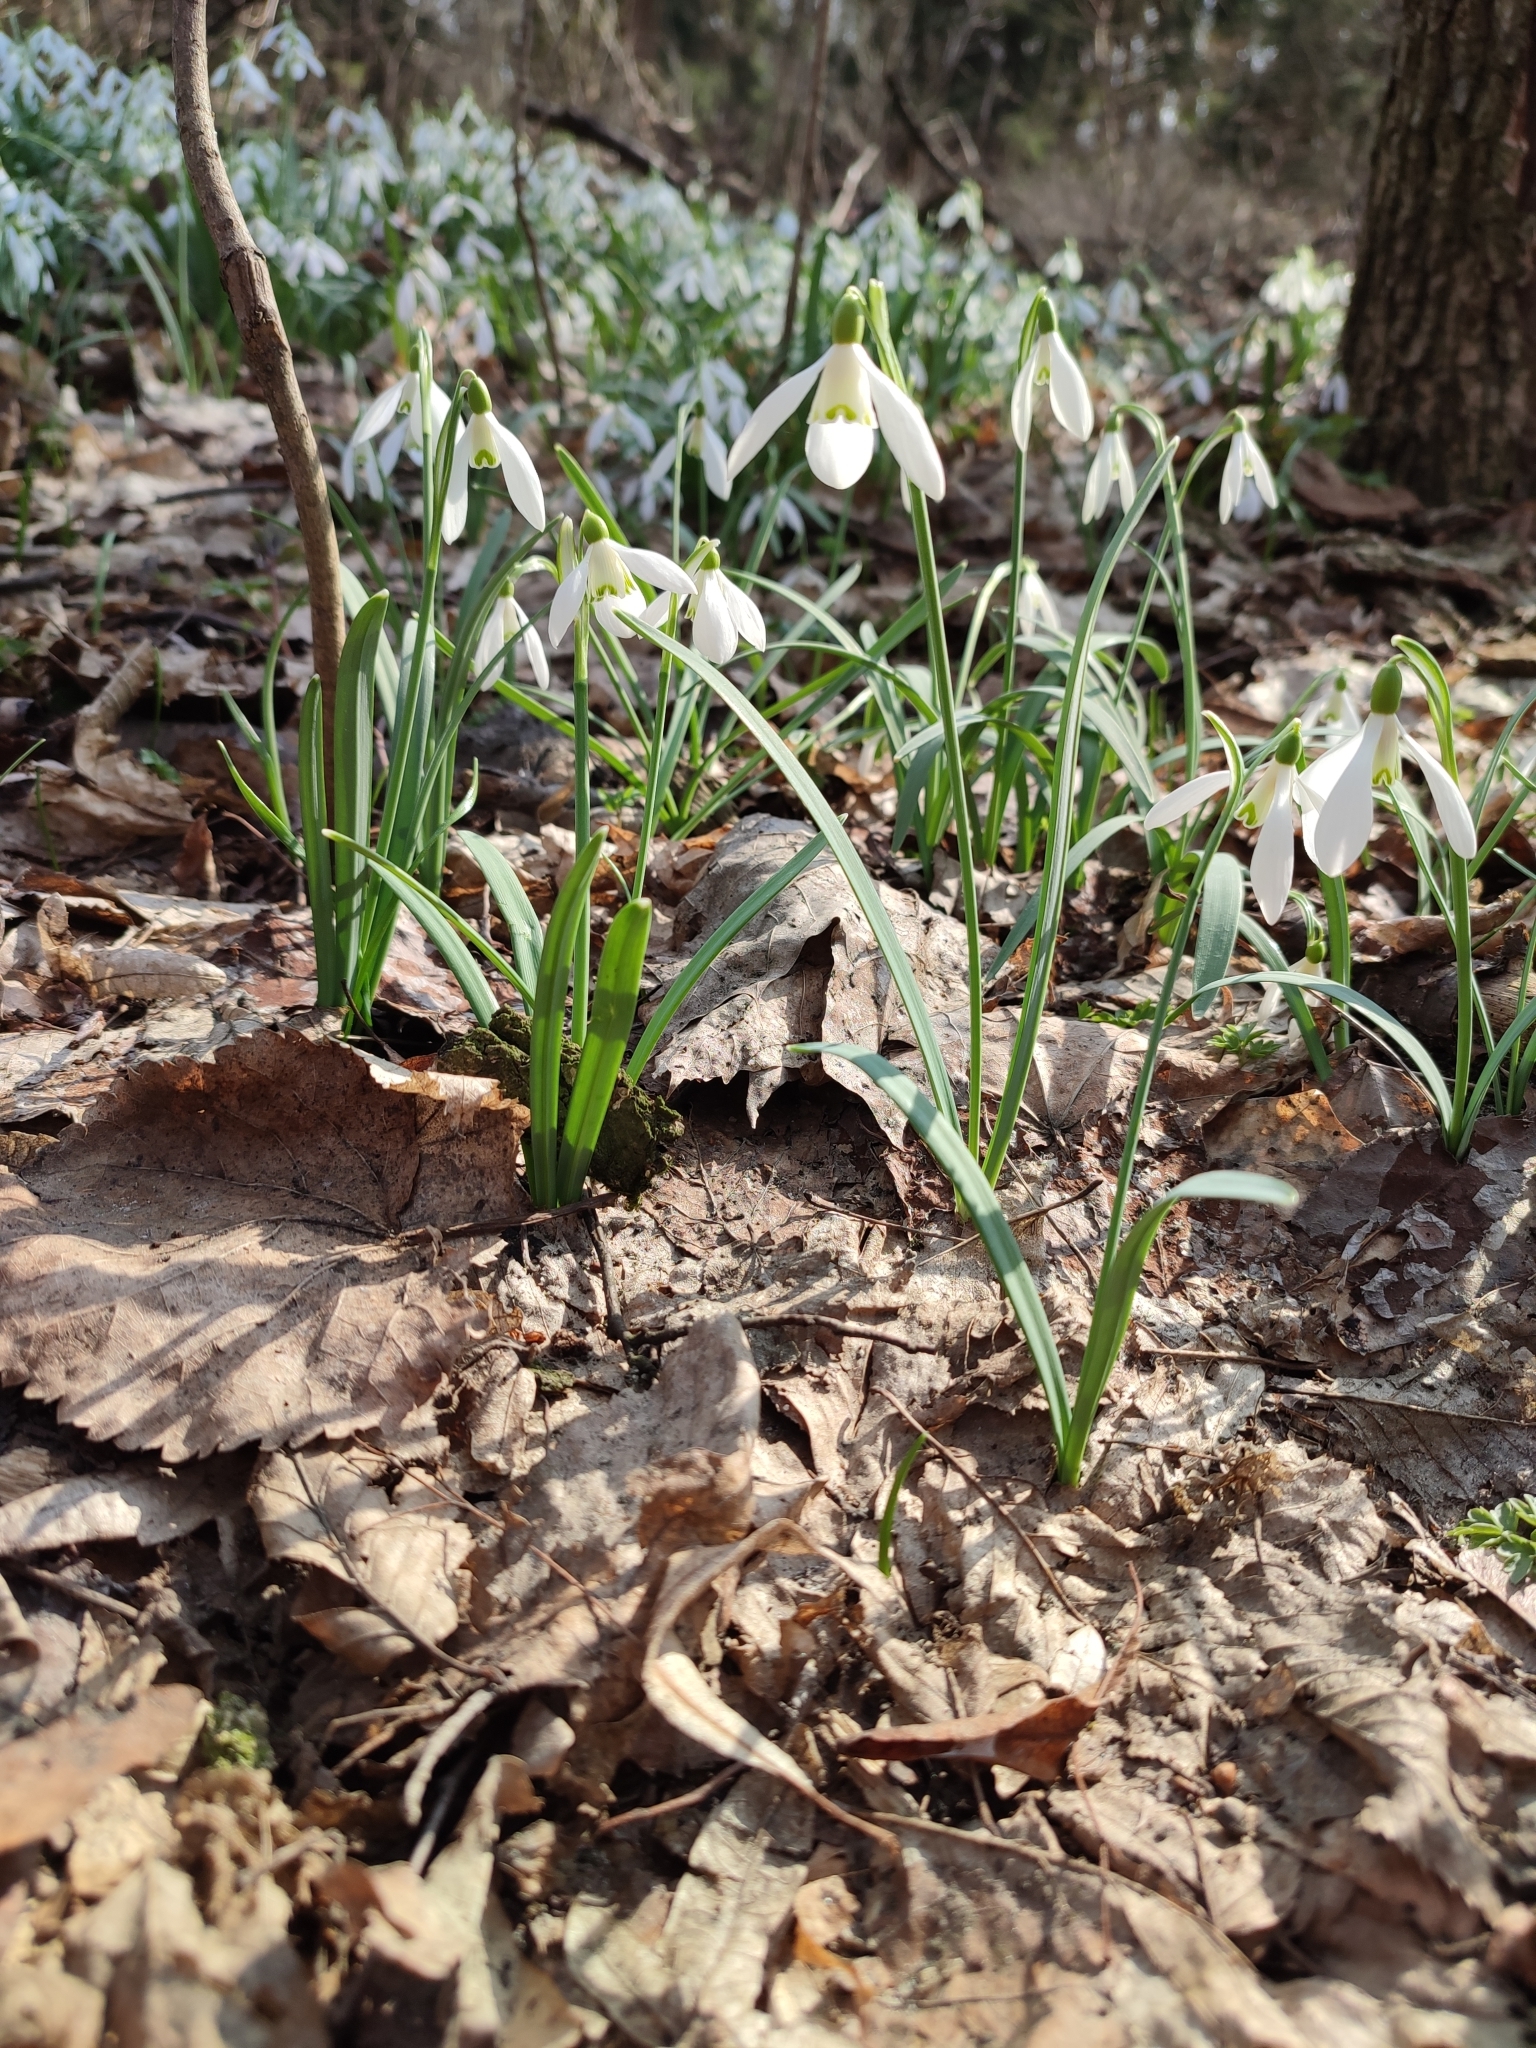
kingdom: Plantae
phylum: Tracheophyta
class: Liliopsida
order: Asparagales
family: Amaryllidaceae
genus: Galanthus
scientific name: Galanthus nivalis
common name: Snowdrop
